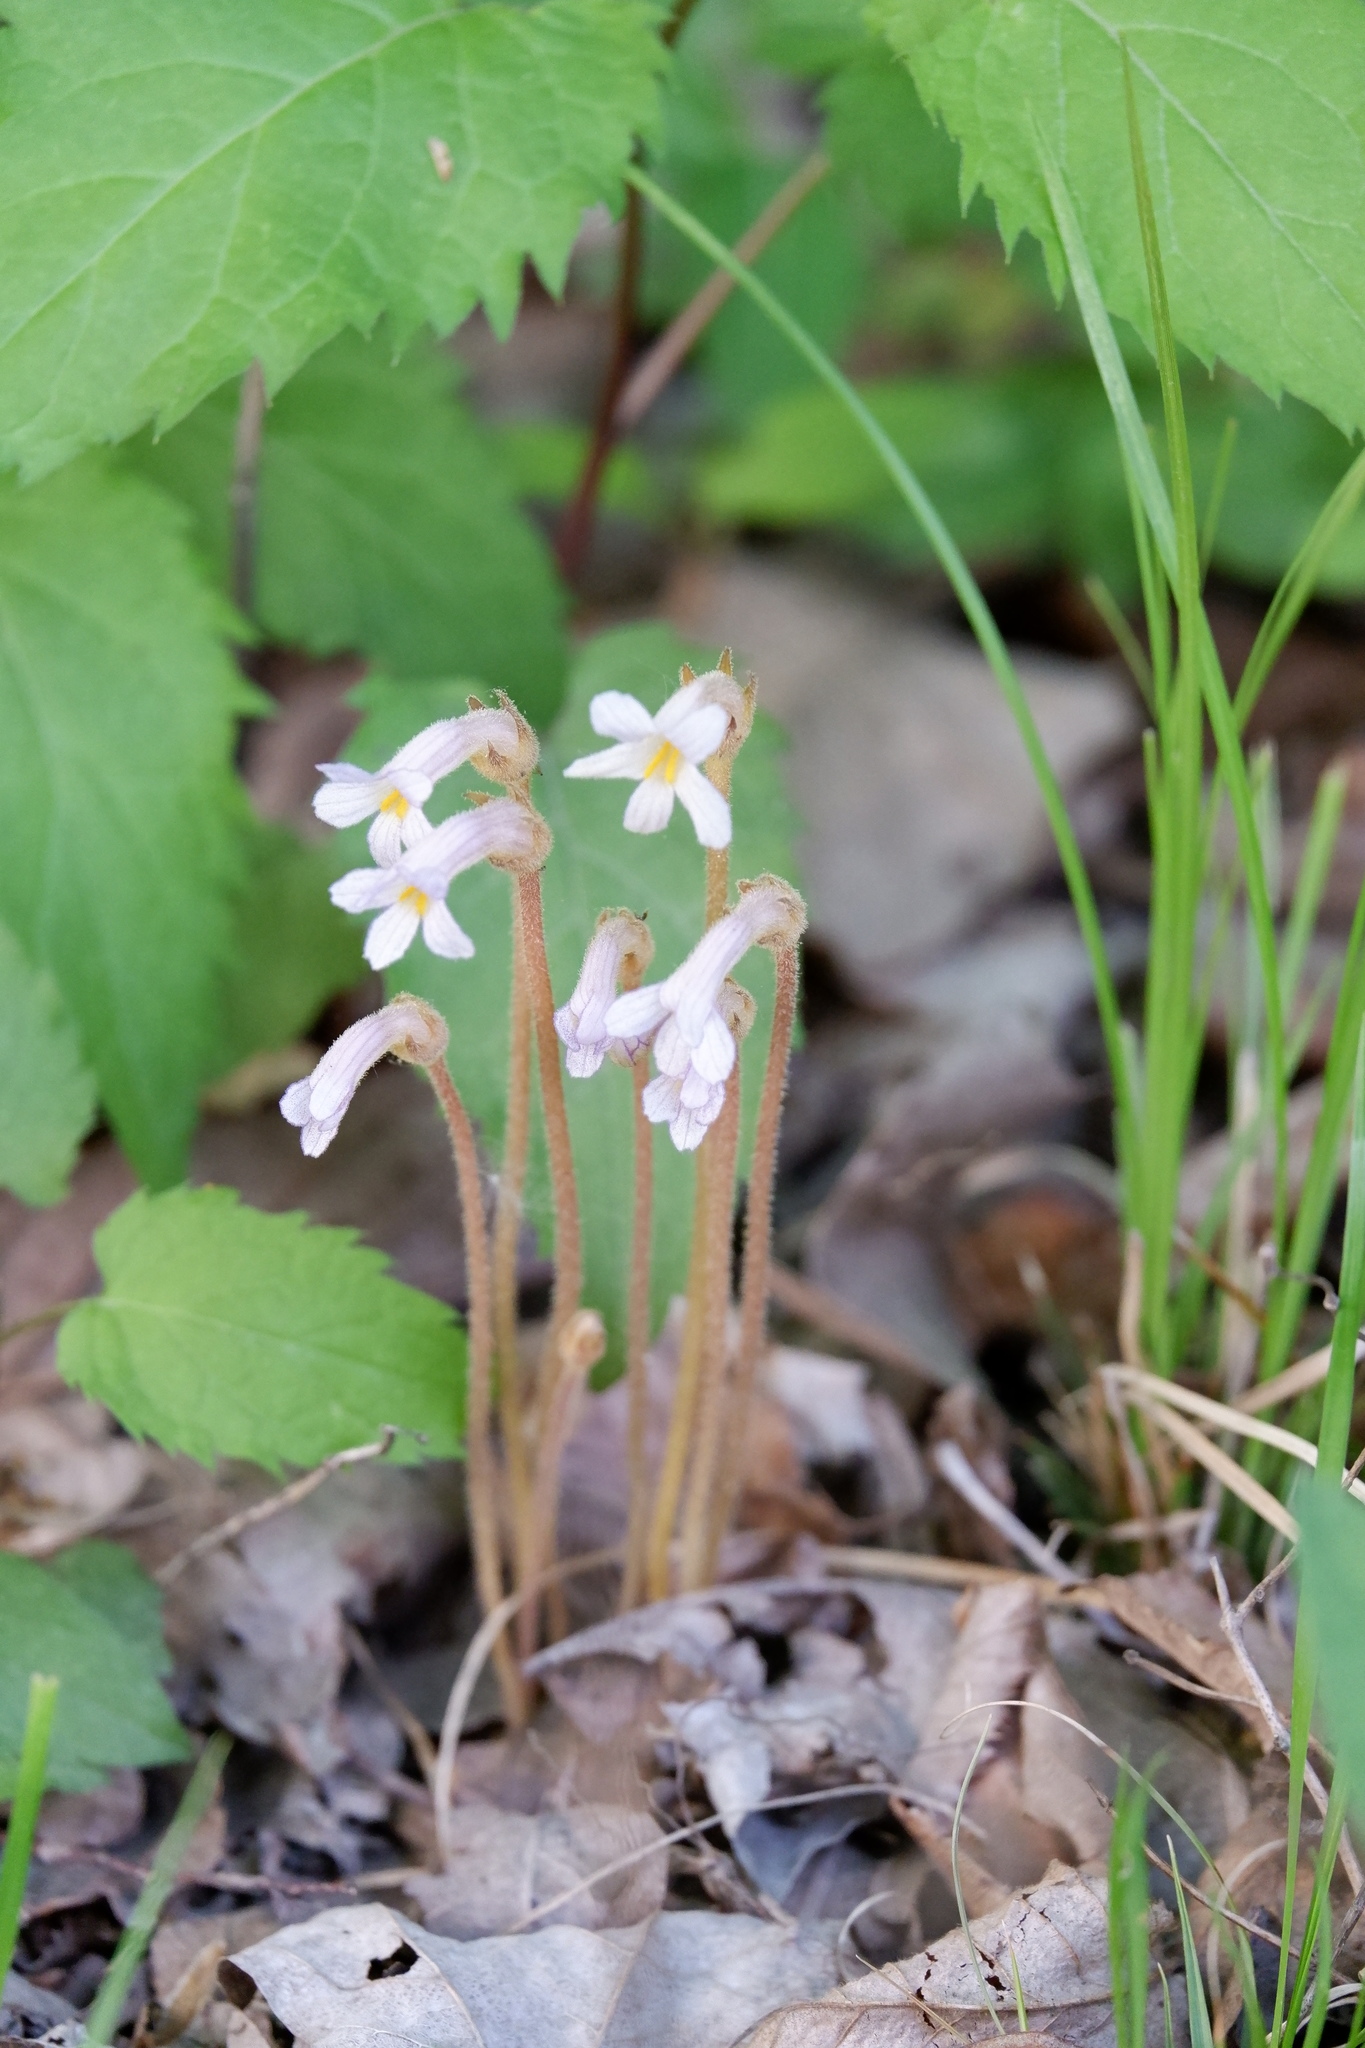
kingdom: Plantae
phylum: Tracheophyta
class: Magnoliopsida
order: Lamiales
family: Orobanchaceae
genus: Aphyllon
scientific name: Aphyllon uniflorum
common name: One-flowered broomrape
